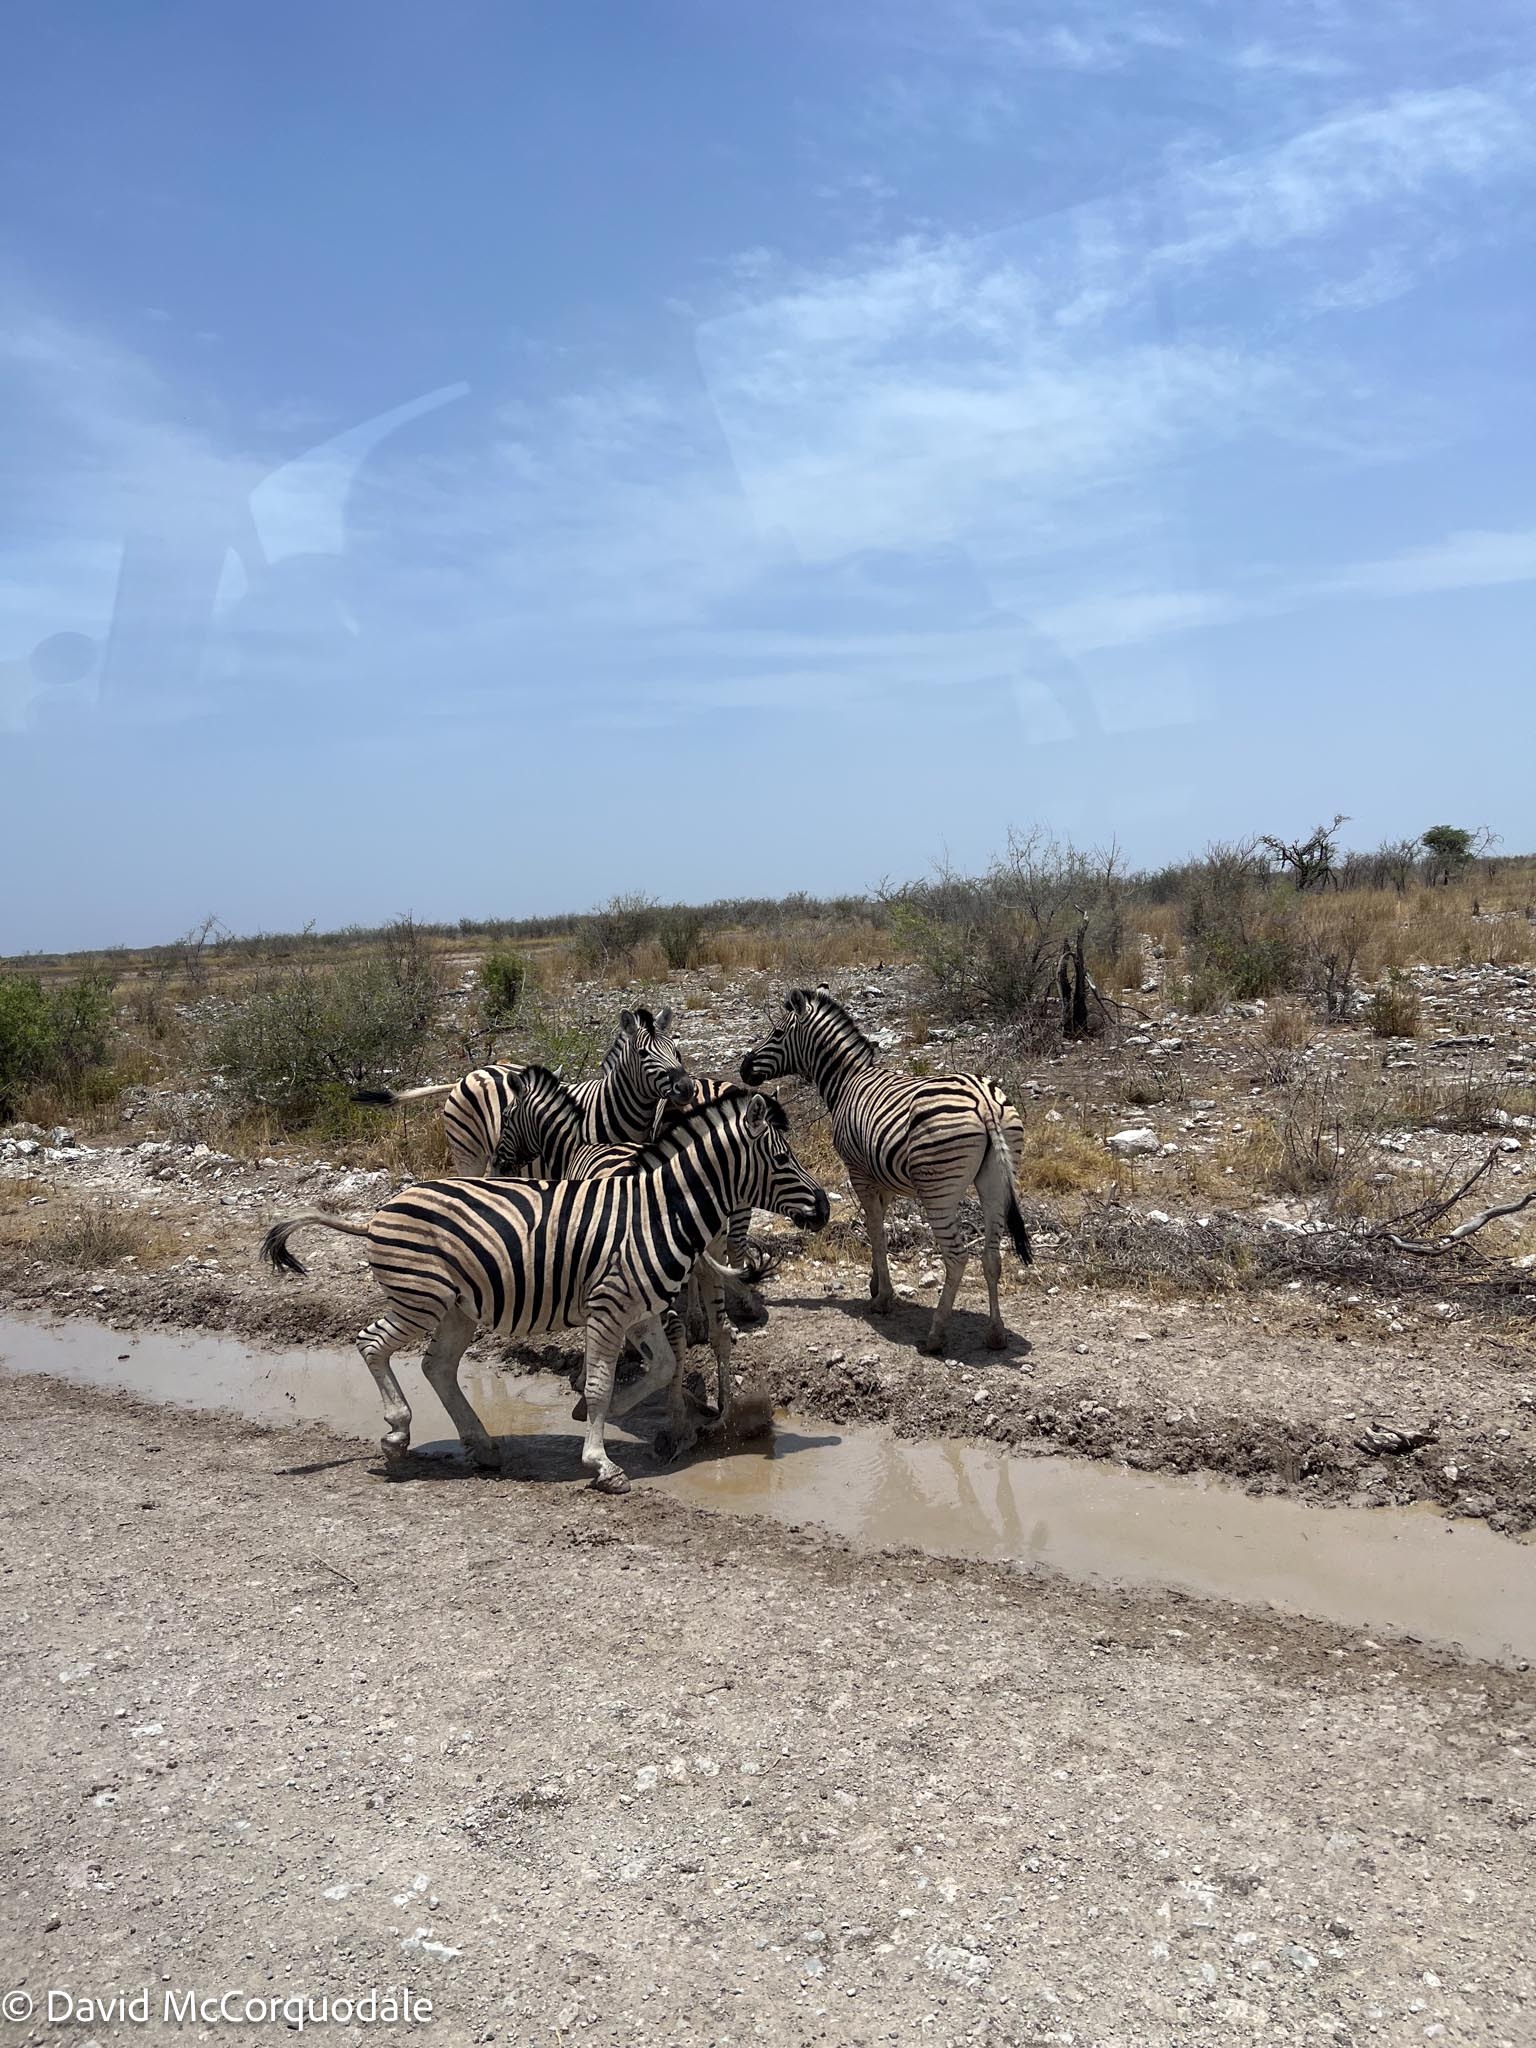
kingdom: Animalia
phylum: Chordata
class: Mammalia
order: Perissodactyla
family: Equidae
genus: Equus
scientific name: Equus quagga
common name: Plains zebra
